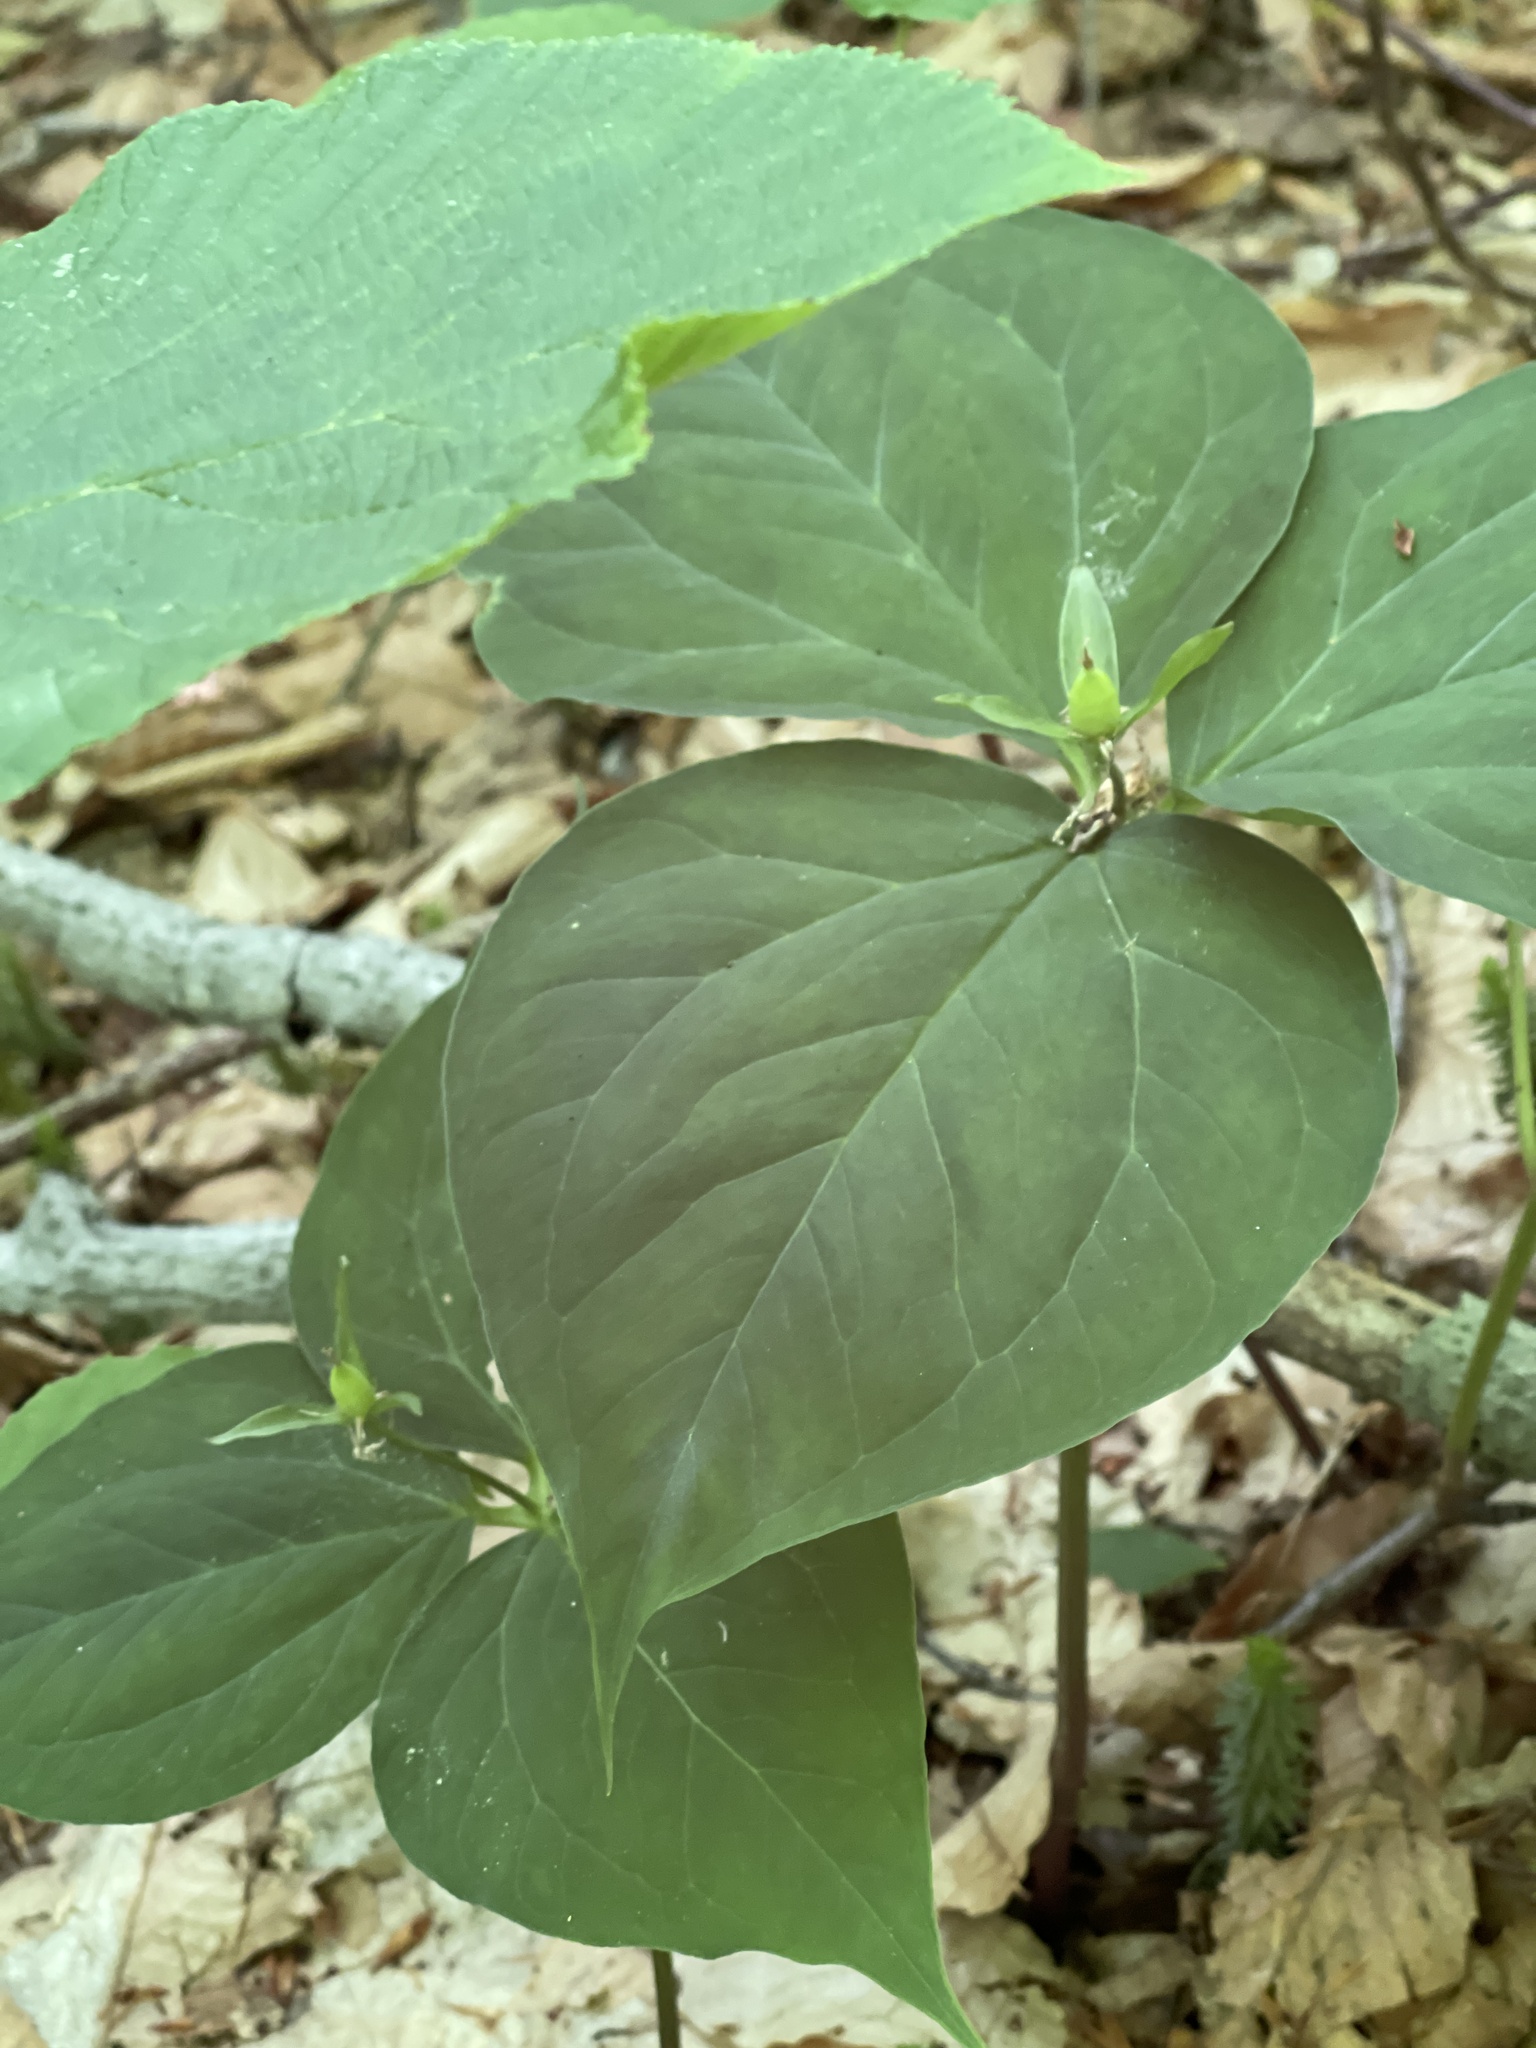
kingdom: Plantae
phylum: Tracheophyta
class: Liliopsida
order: Liliales
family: Melanthiaceae
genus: Trillium
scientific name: Trillium undulatum
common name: Paint trillium
